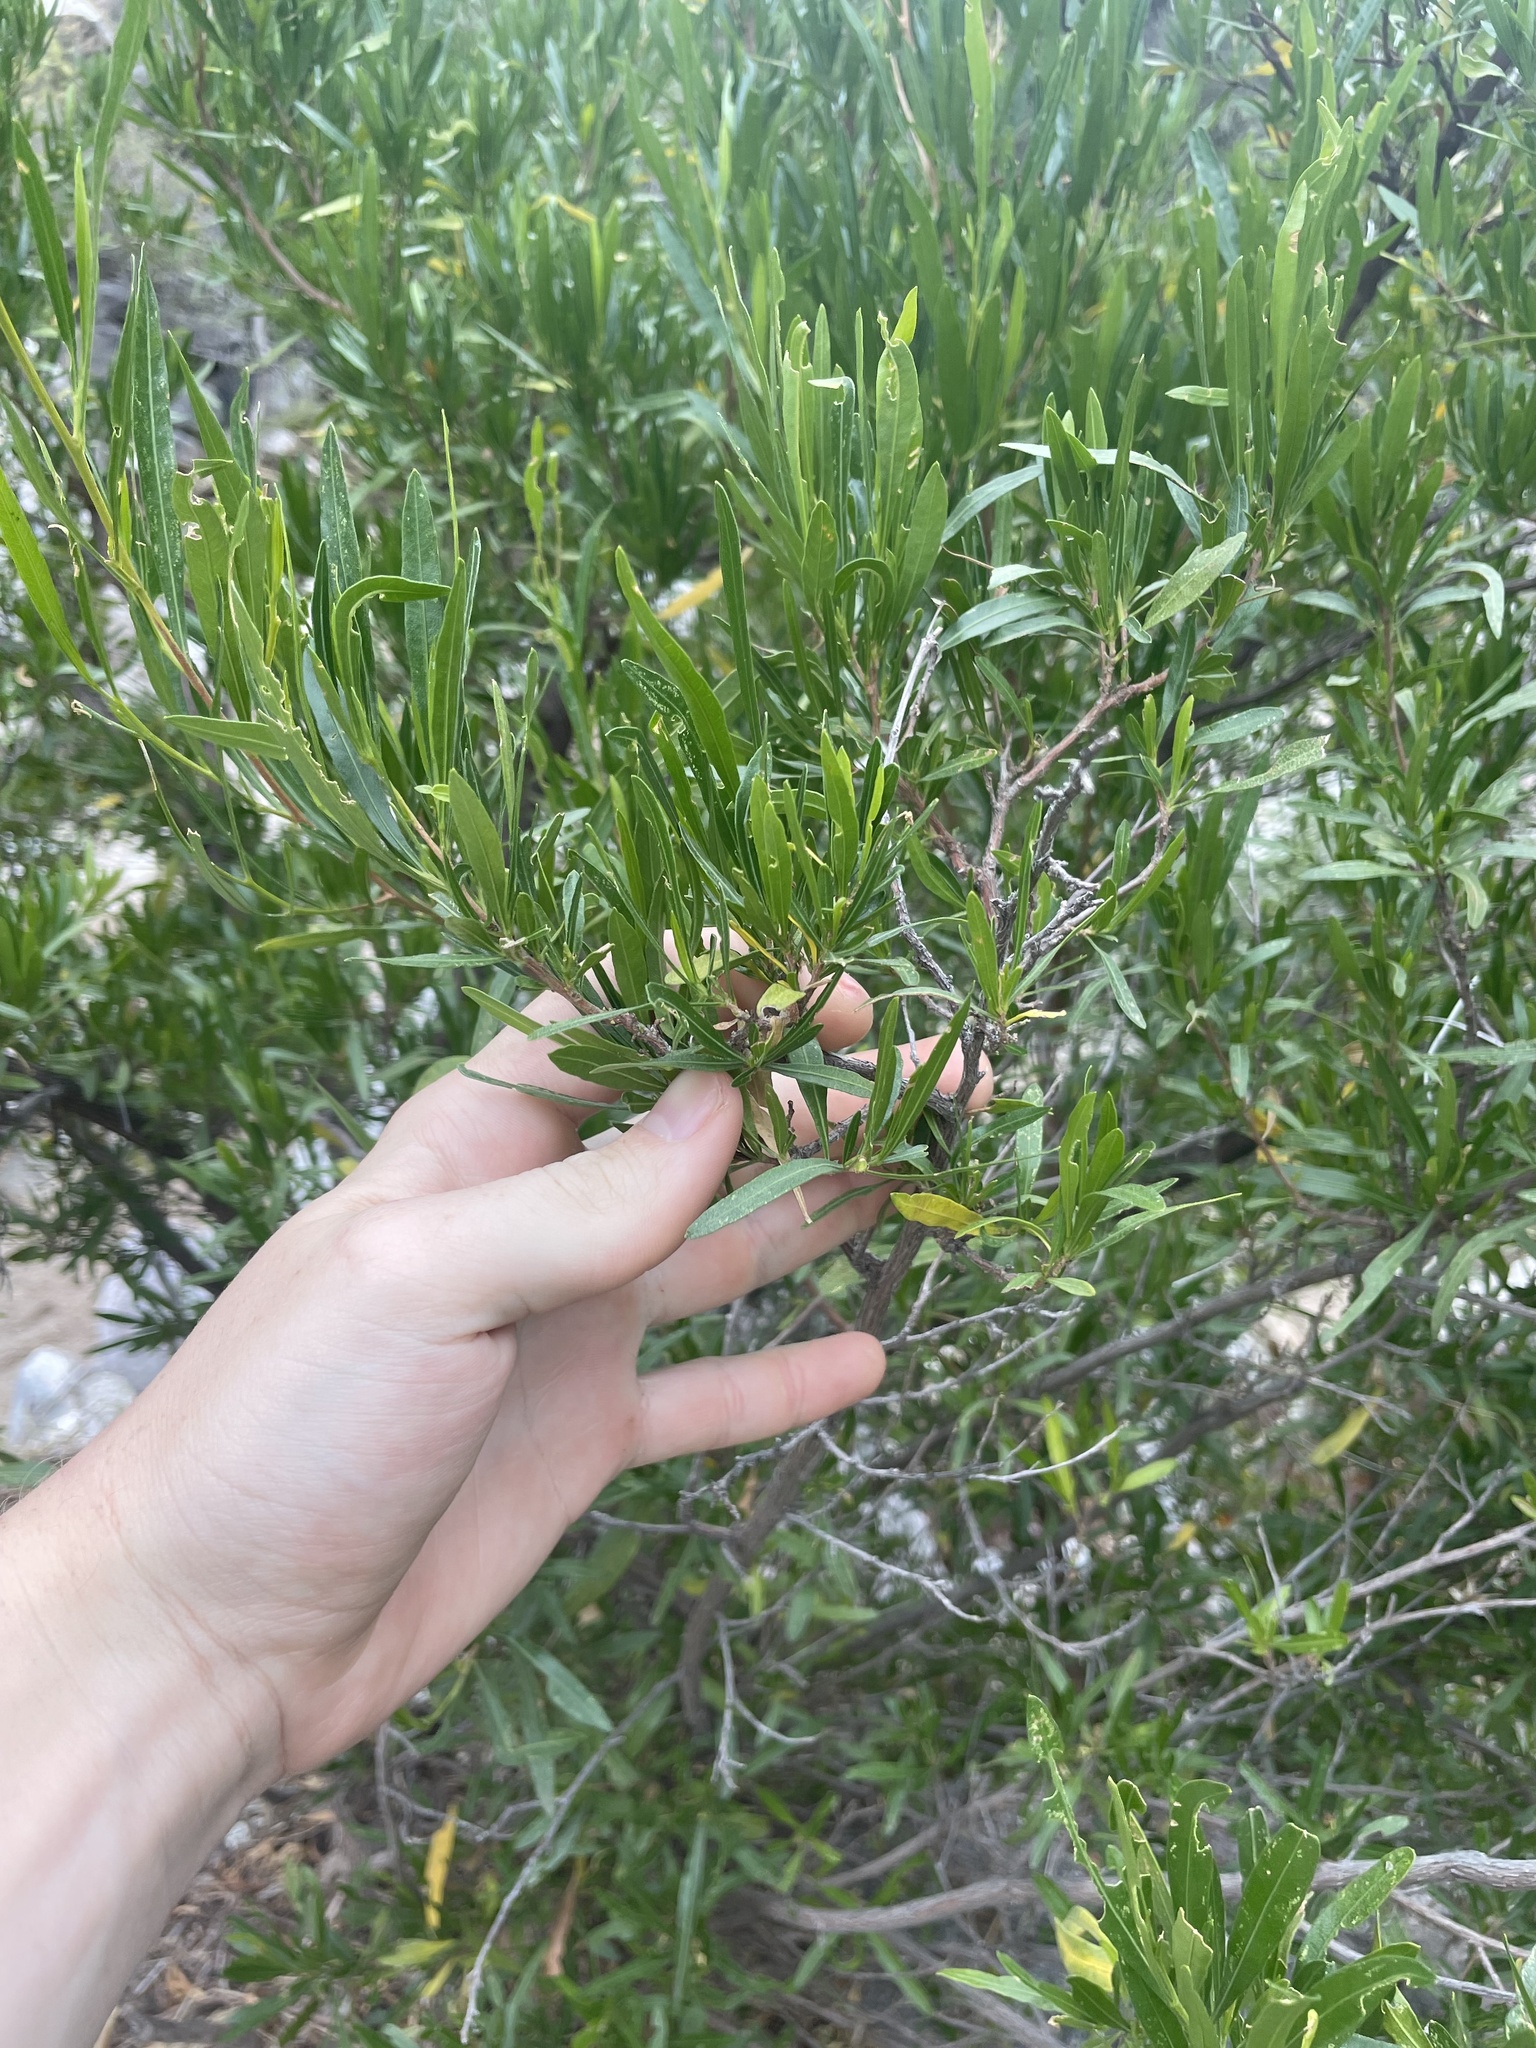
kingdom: Plantae
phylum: Tracheophyta
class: Magnoliopsida
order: Sapindales
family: Sapindaceae
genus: Dodonaea
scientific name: Dodonaea viscosa
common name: Hopbush
